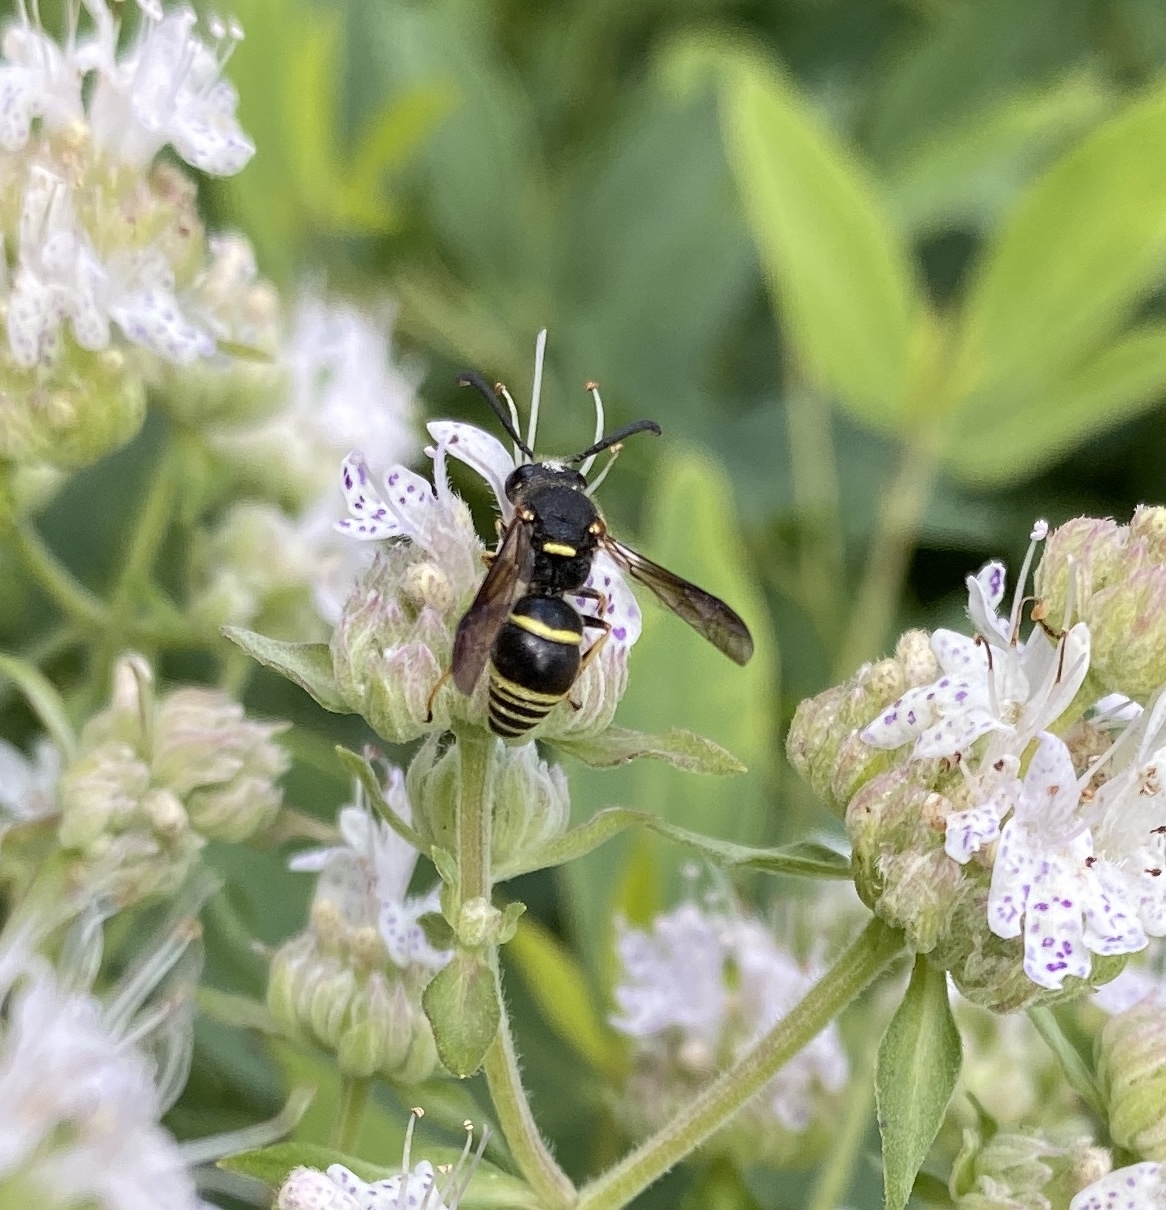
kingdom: Animalia
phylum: Arthropoda
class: Insecta
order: Hymenoptera
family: Eumenidae
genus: Euodynerus
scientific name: Euodynerus foraminatus
